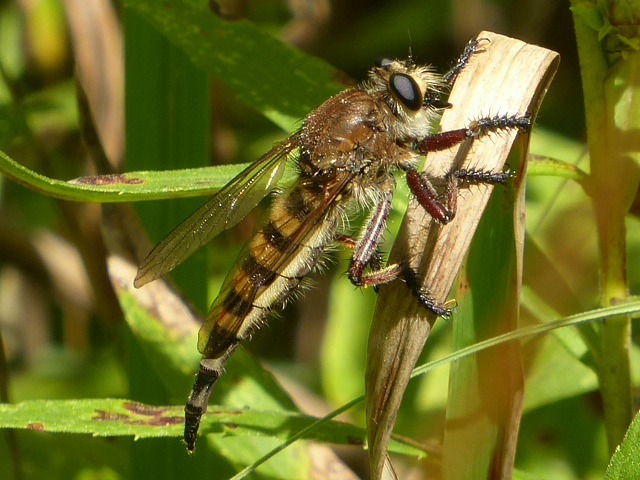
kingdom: Animalia
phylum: Arthropoda
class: Insecta
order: Diptera
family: Asilidae
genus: Promachus
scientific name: Promachus hinei
